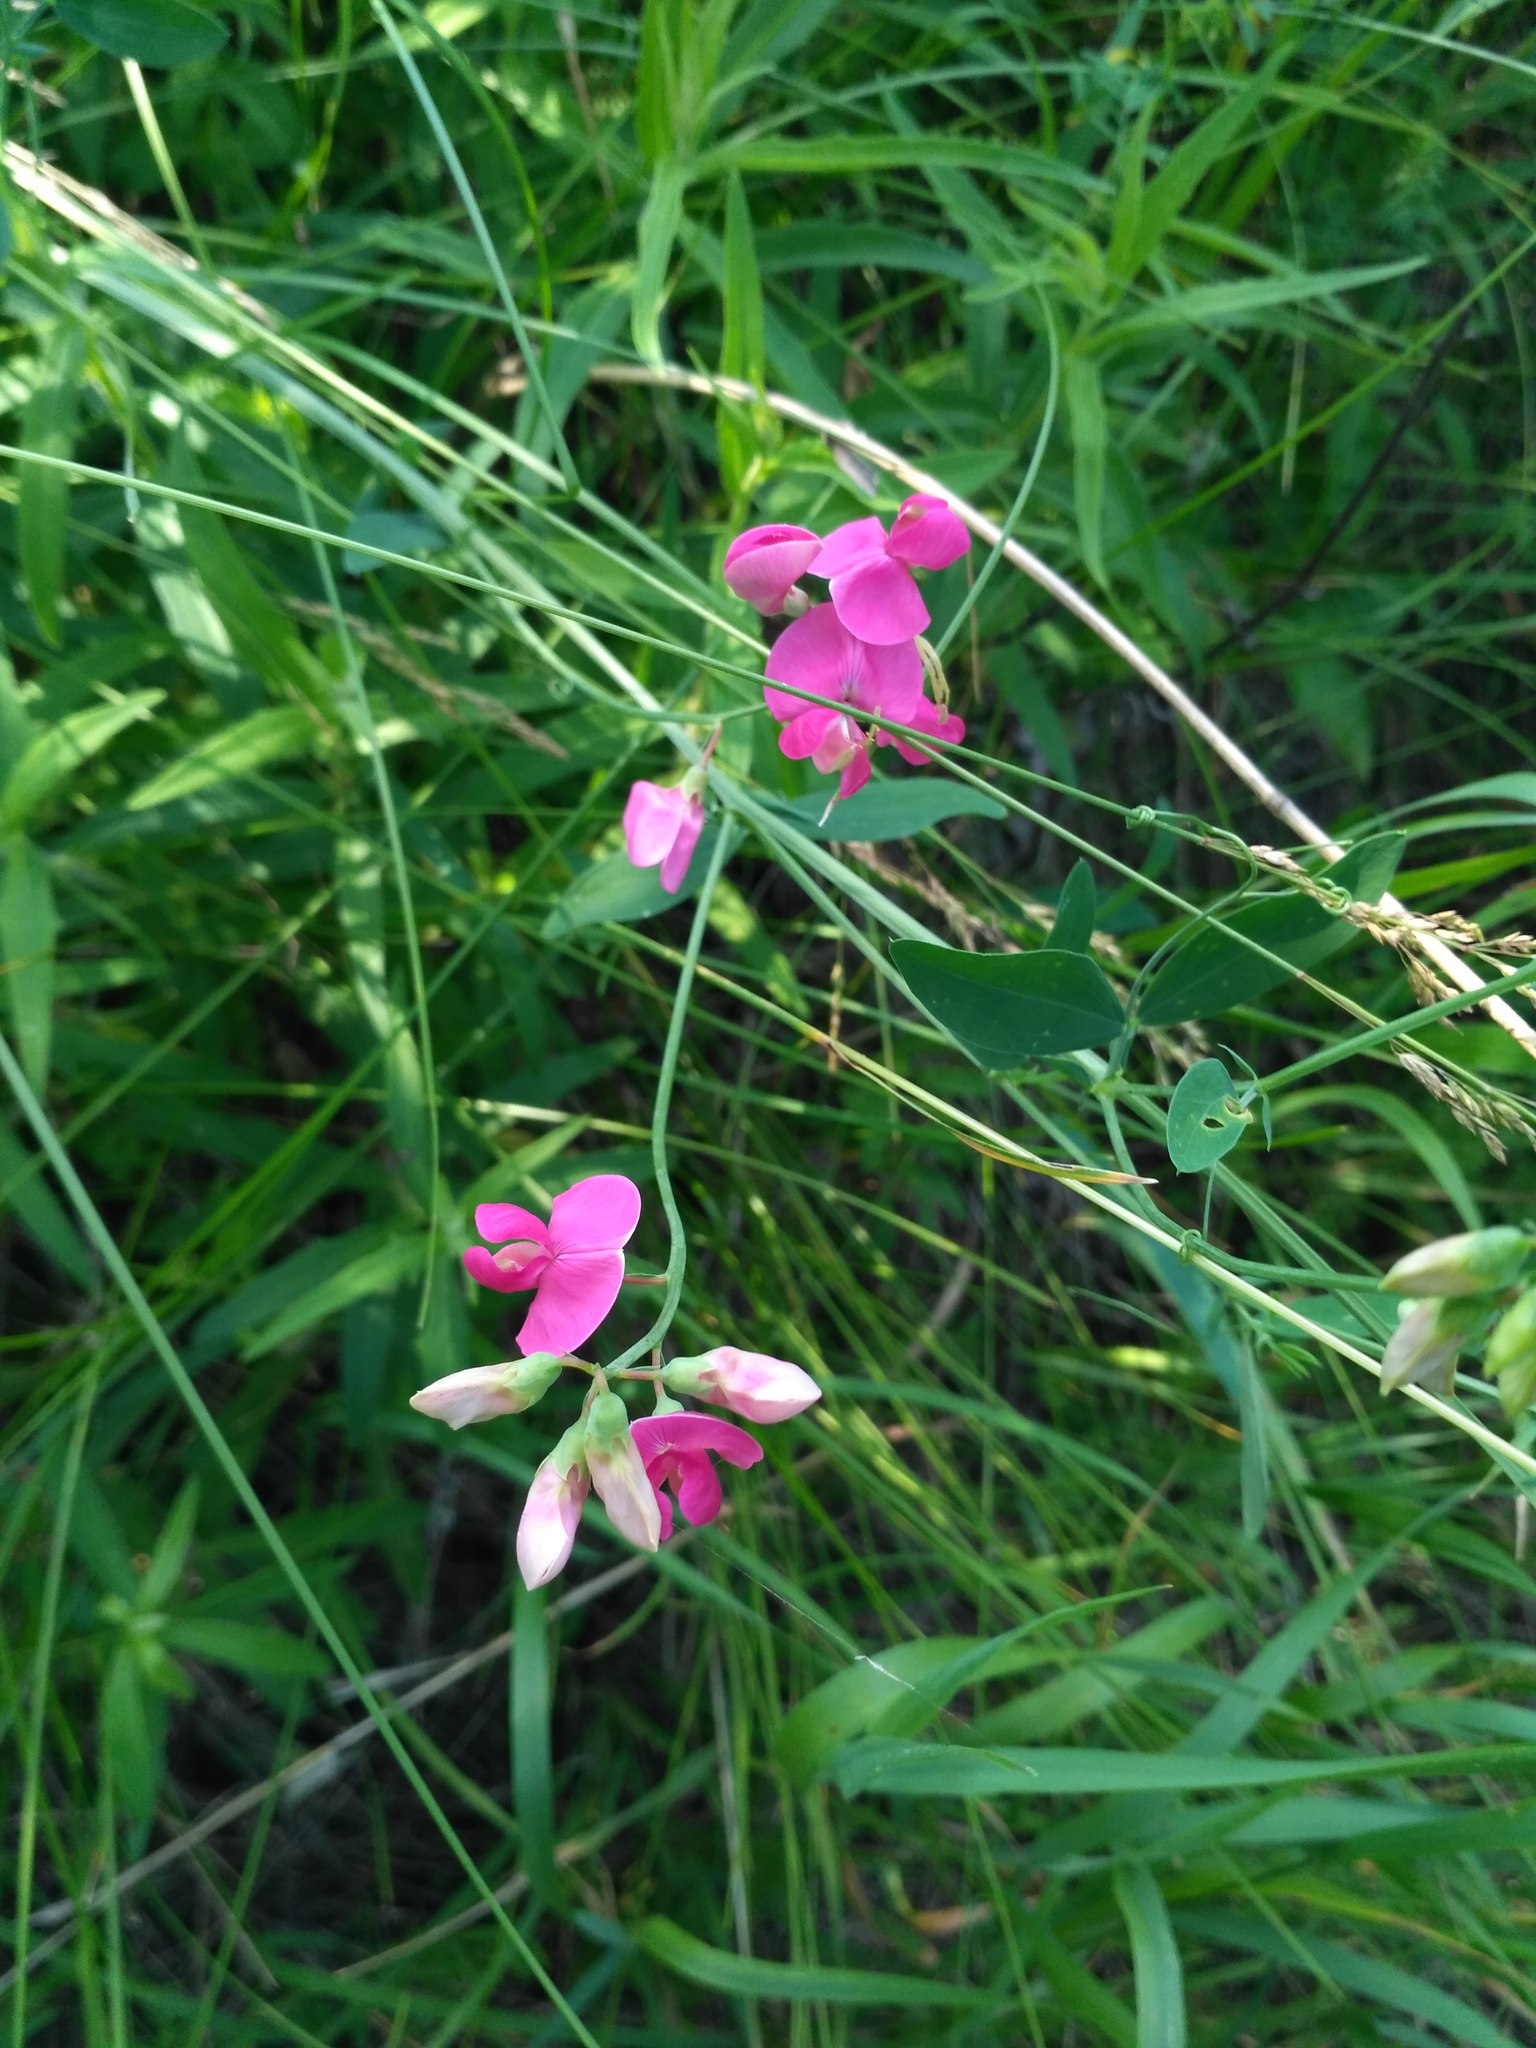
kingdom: Plantae
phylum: Tracheophyta
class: Magnoliopsida
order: Fabales
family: Fabaceae
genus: Lathyrus
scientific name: Lathyrus tuberosus
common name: Tuberous pea
